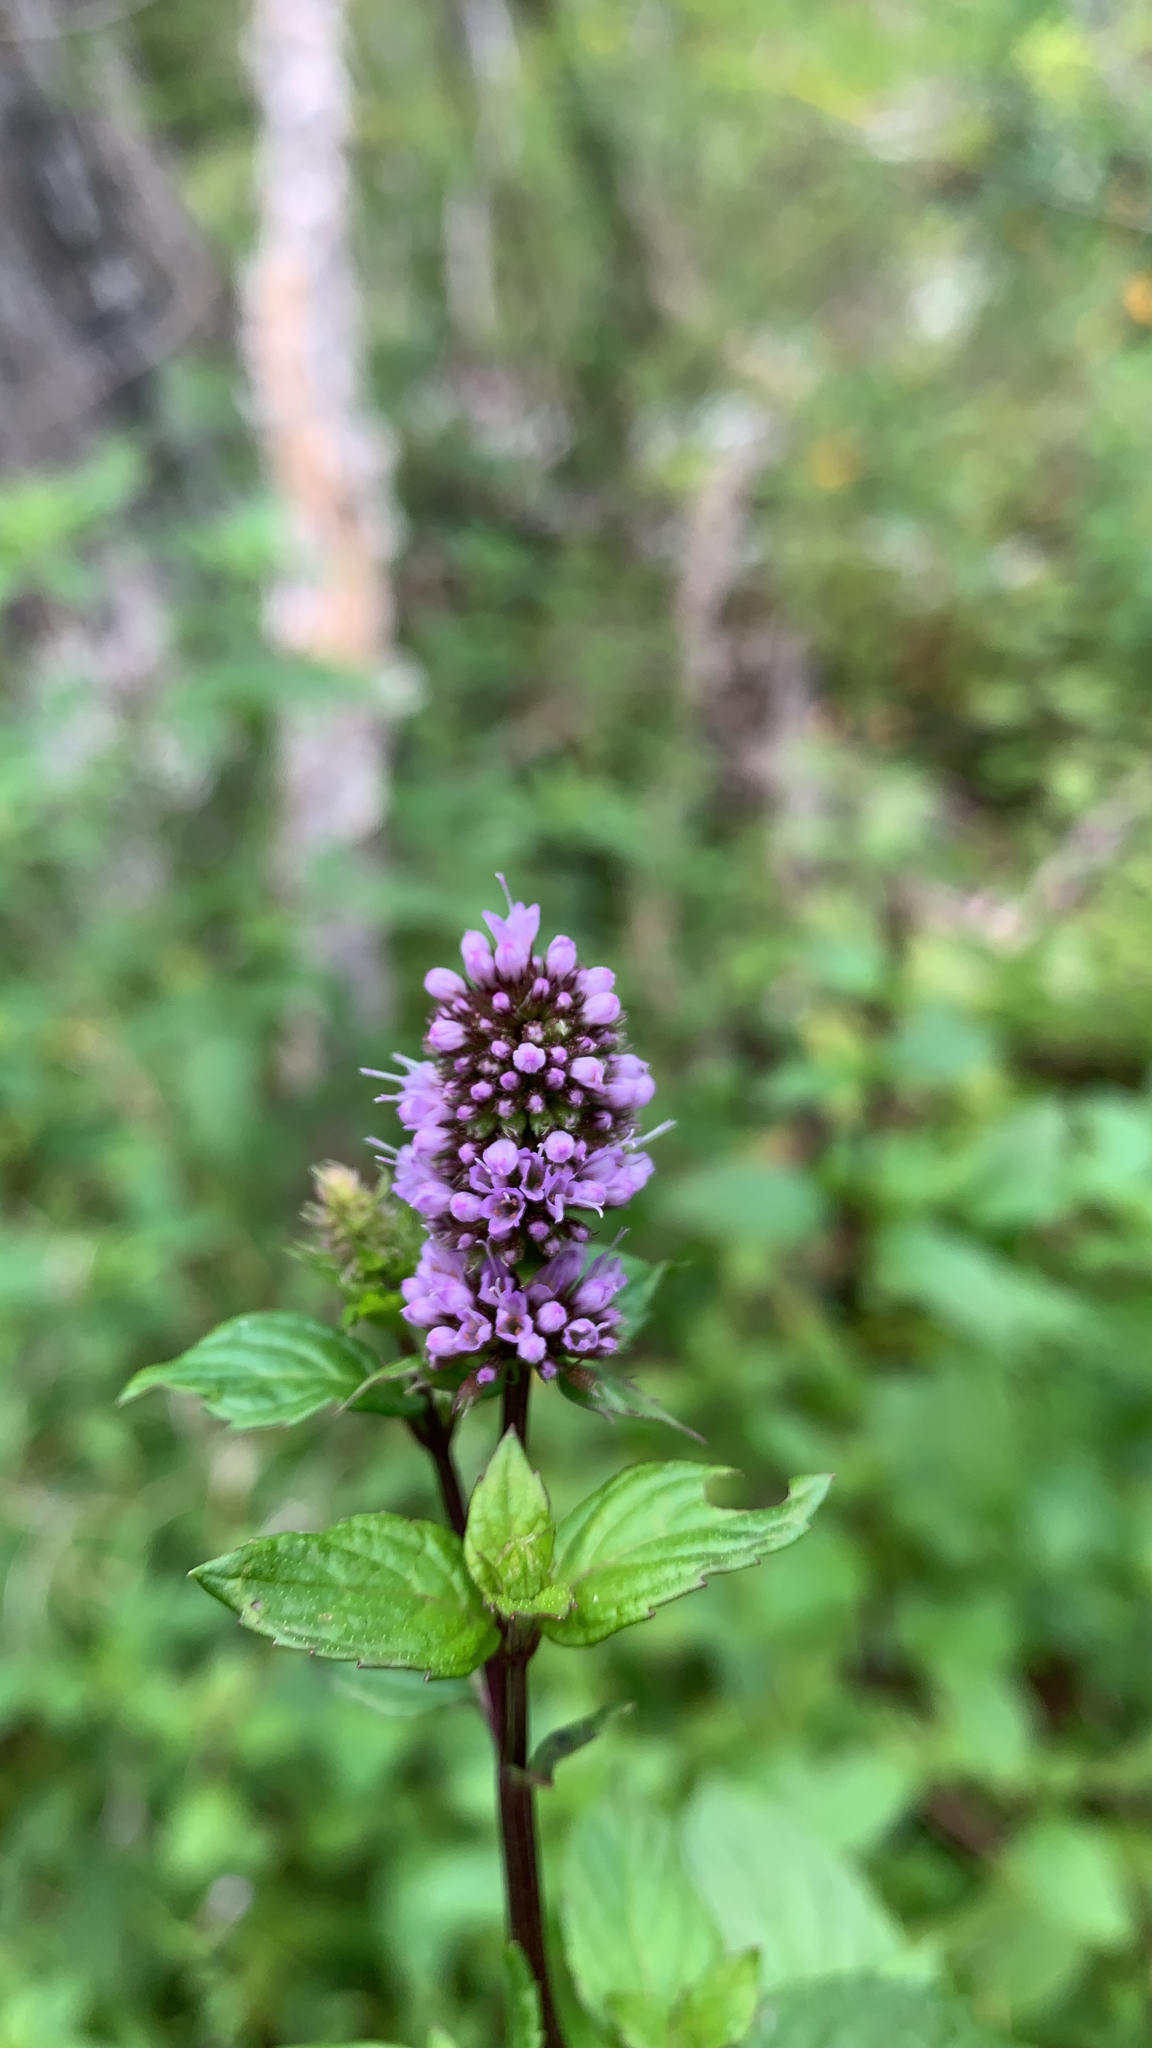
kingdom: Plantae
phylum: Tracheophyta
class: Magnoliopsida
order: Lamiales
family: Lamiaceae
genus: Mentha
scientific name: Mentha piperita
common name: Peppermint
